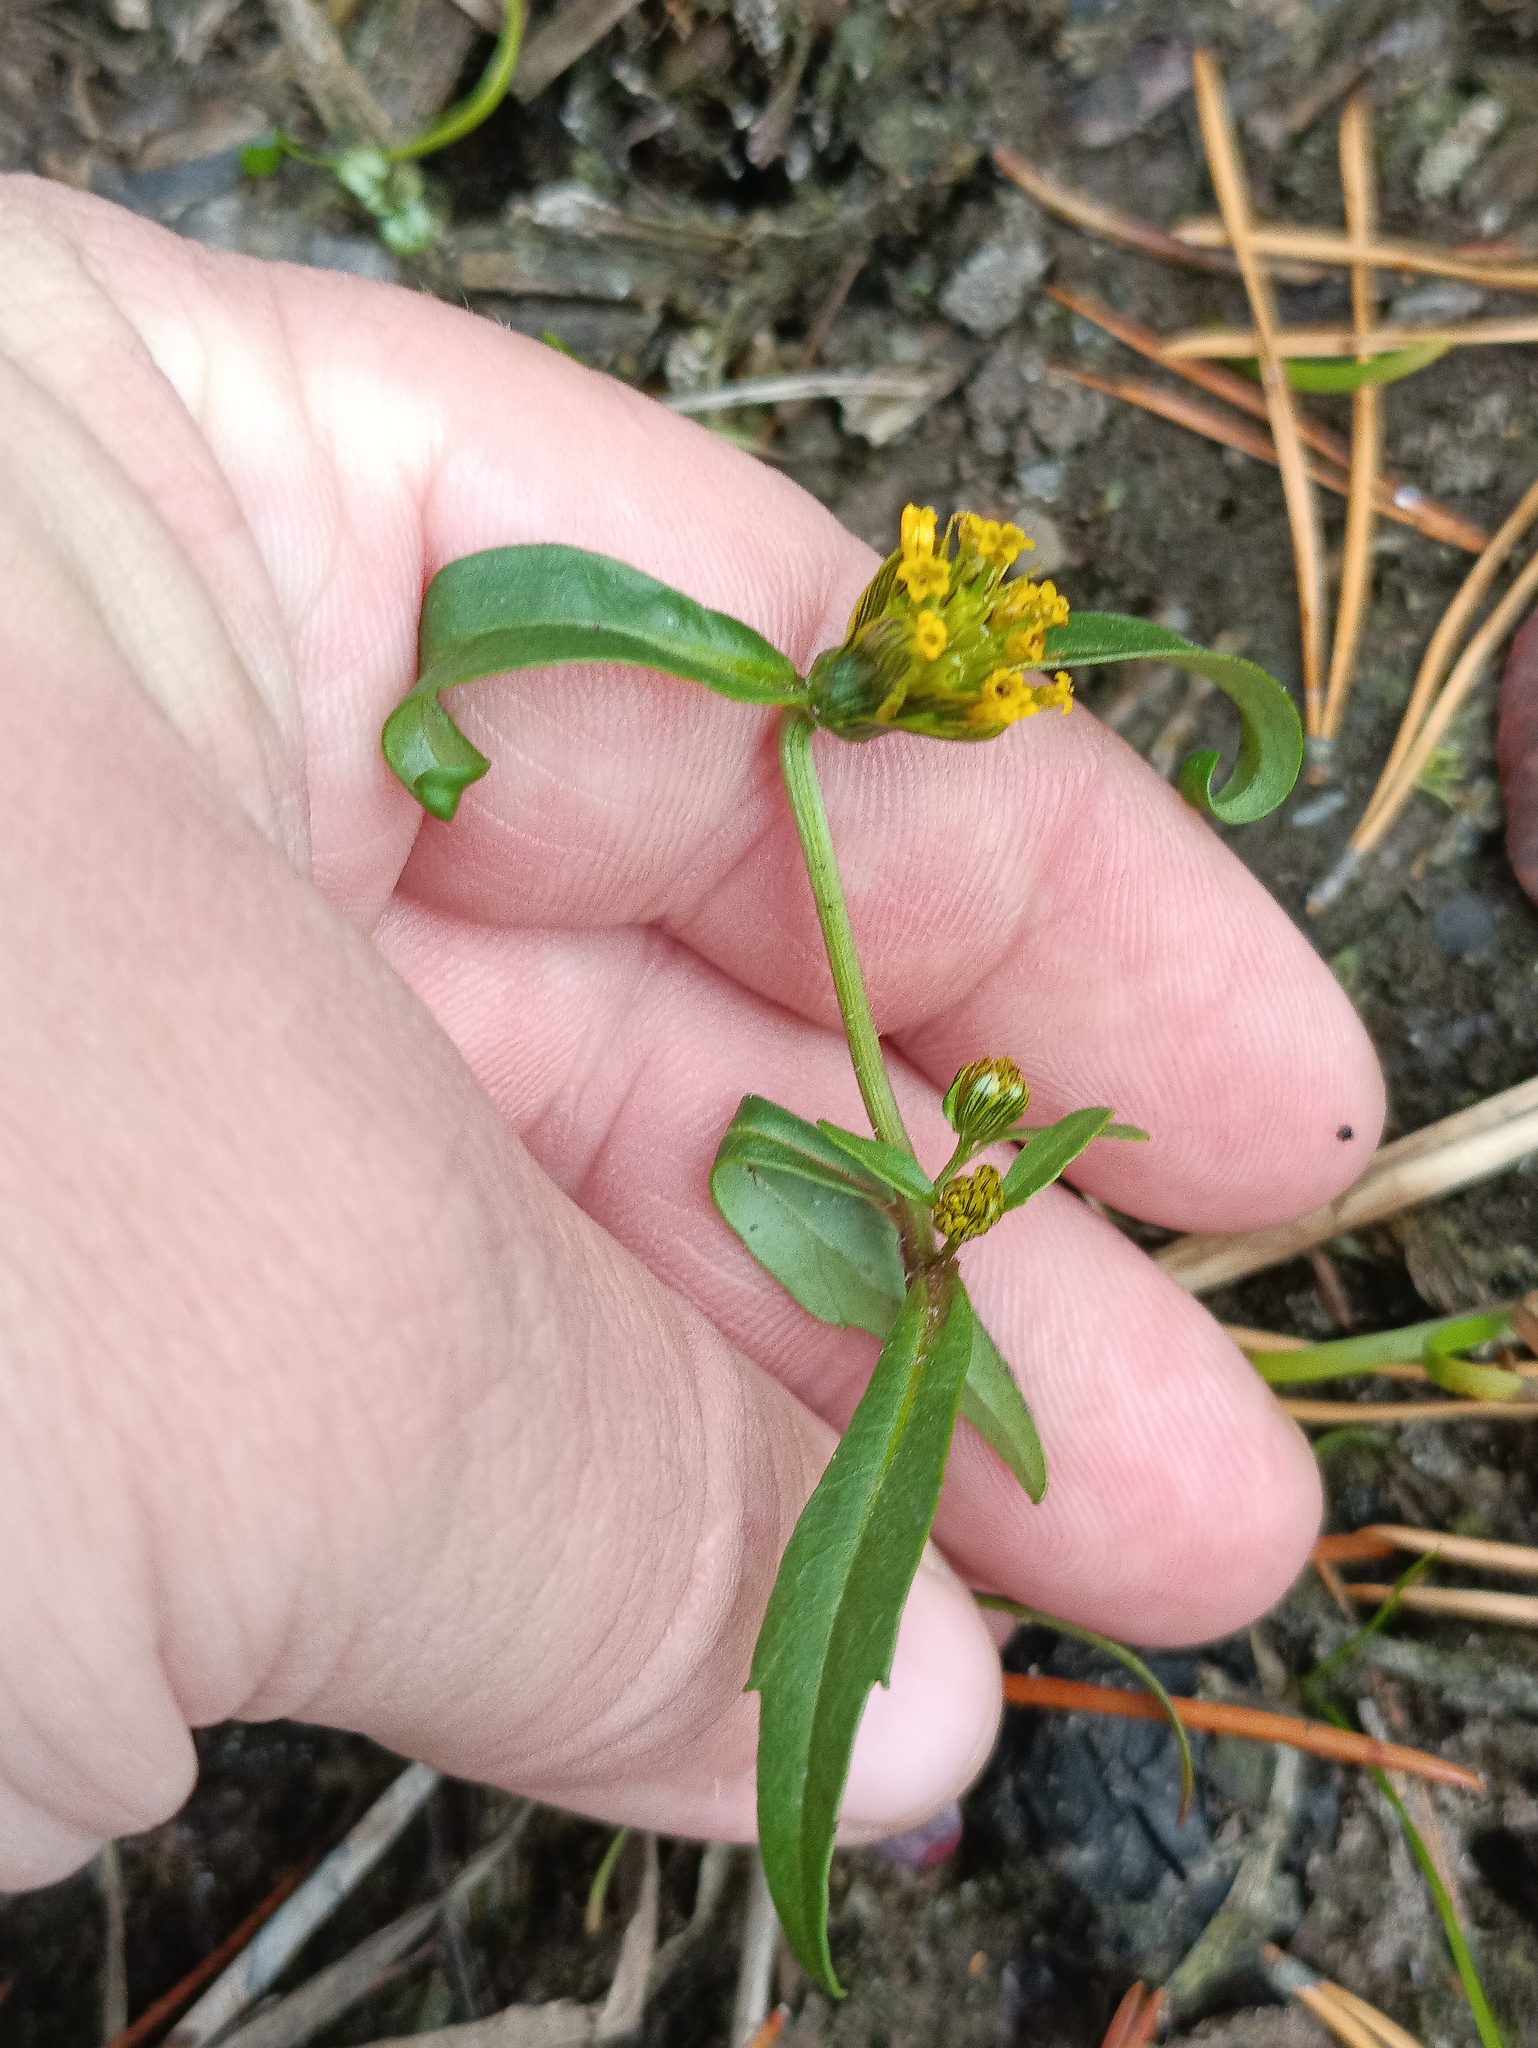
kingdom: Plantae
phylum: Tracheophyta
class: Magnoliopsida
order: Asterales
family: Asteraceae
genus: Bidens
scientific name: Bidens cernua
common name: Nodding bur-marigold
